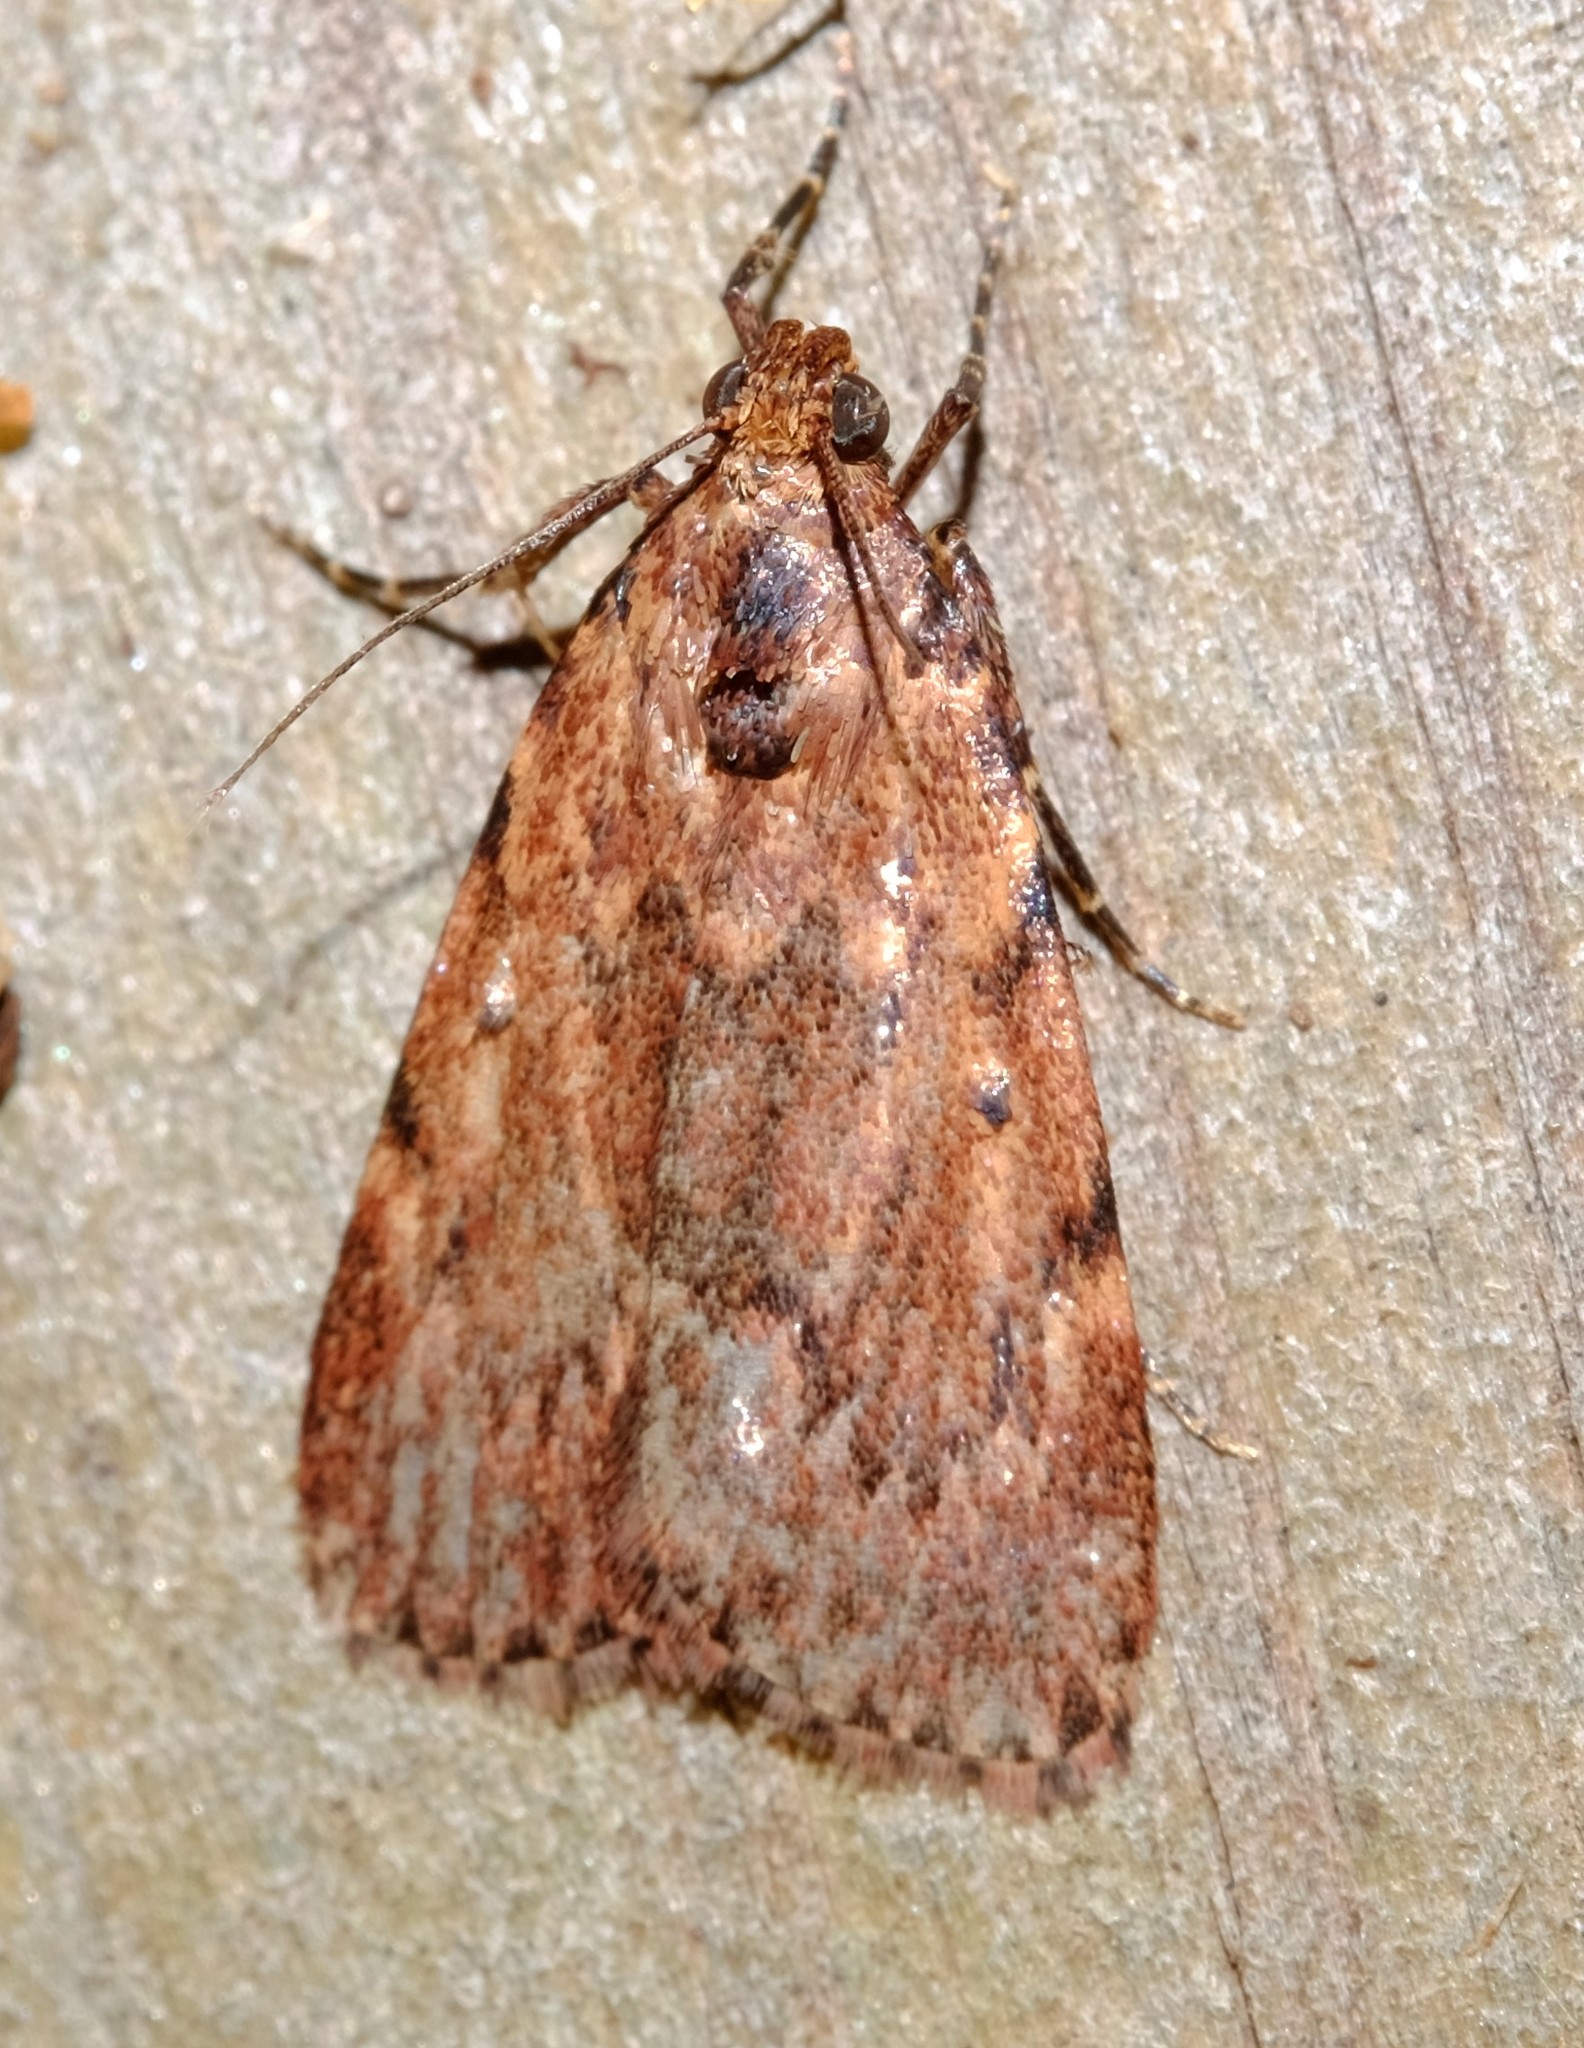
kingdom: Animalia
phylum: Arthropoda
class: Insecta
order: Lepidoptera
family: Pyralidae
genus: Mimaglossa
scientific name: Mimaglossa nauplialis
